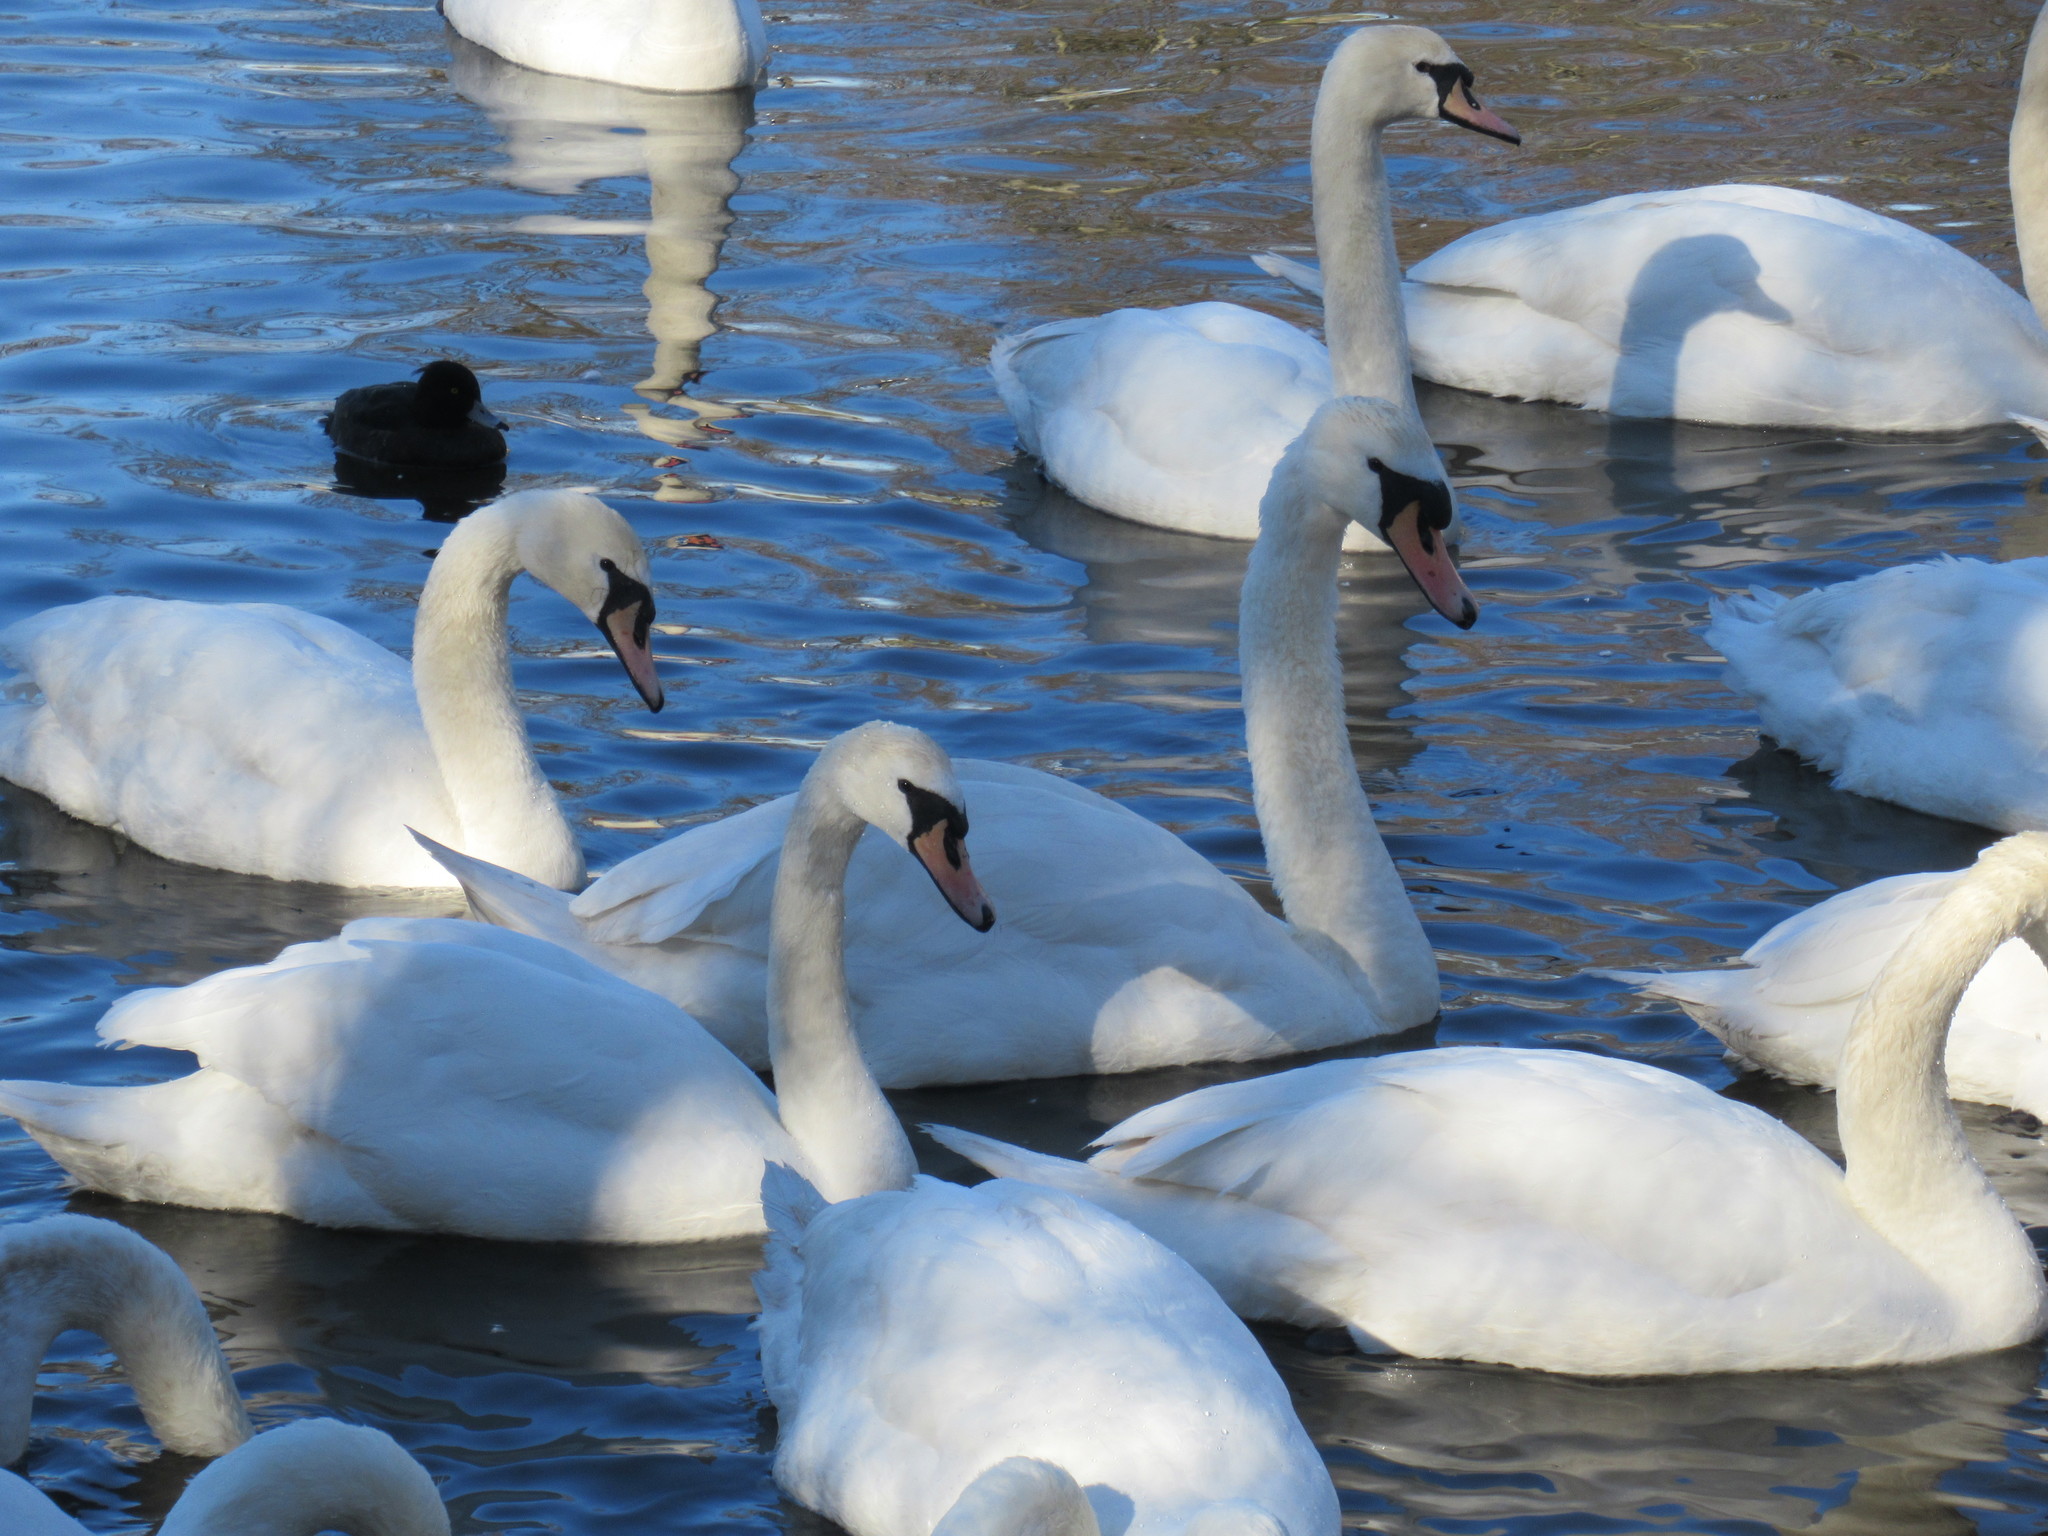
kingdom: Animalia
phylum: Chordata
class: Aves
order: Anseriformes
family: Anatidae
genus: Cygnus
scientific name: Cygnus olor
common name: Mute swan
